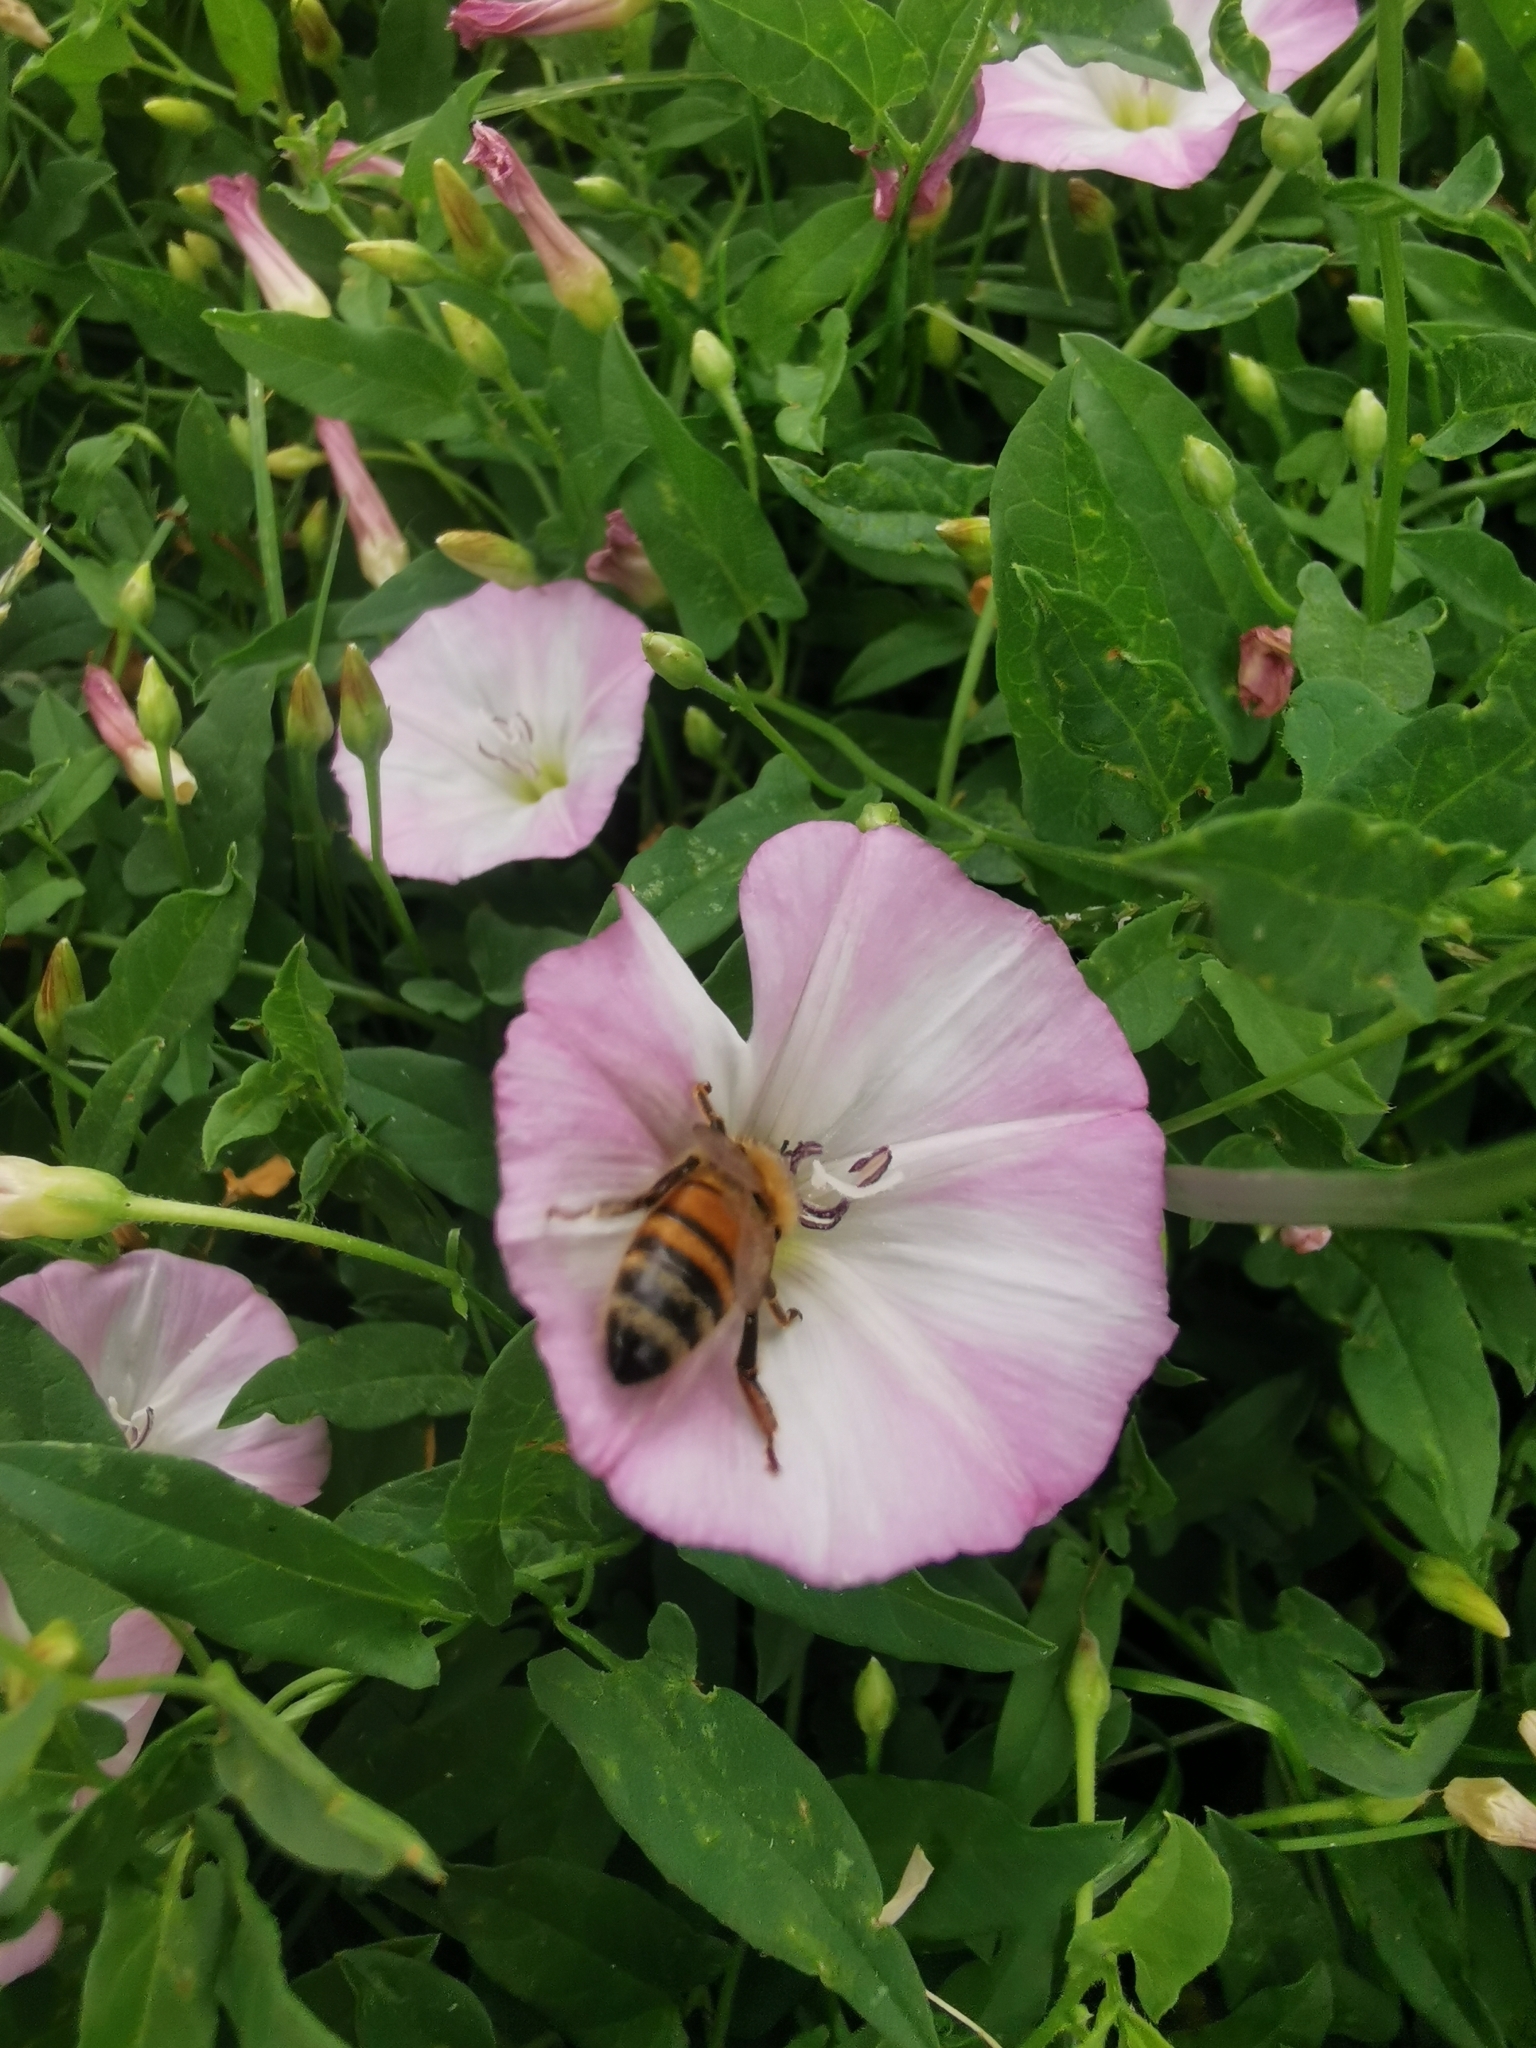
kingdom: Animalia
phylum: Arthropoda
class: Insecta
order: Hymenoptera
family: Apidae
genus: Apis
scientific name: Apis mellifera
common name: Honey bee
